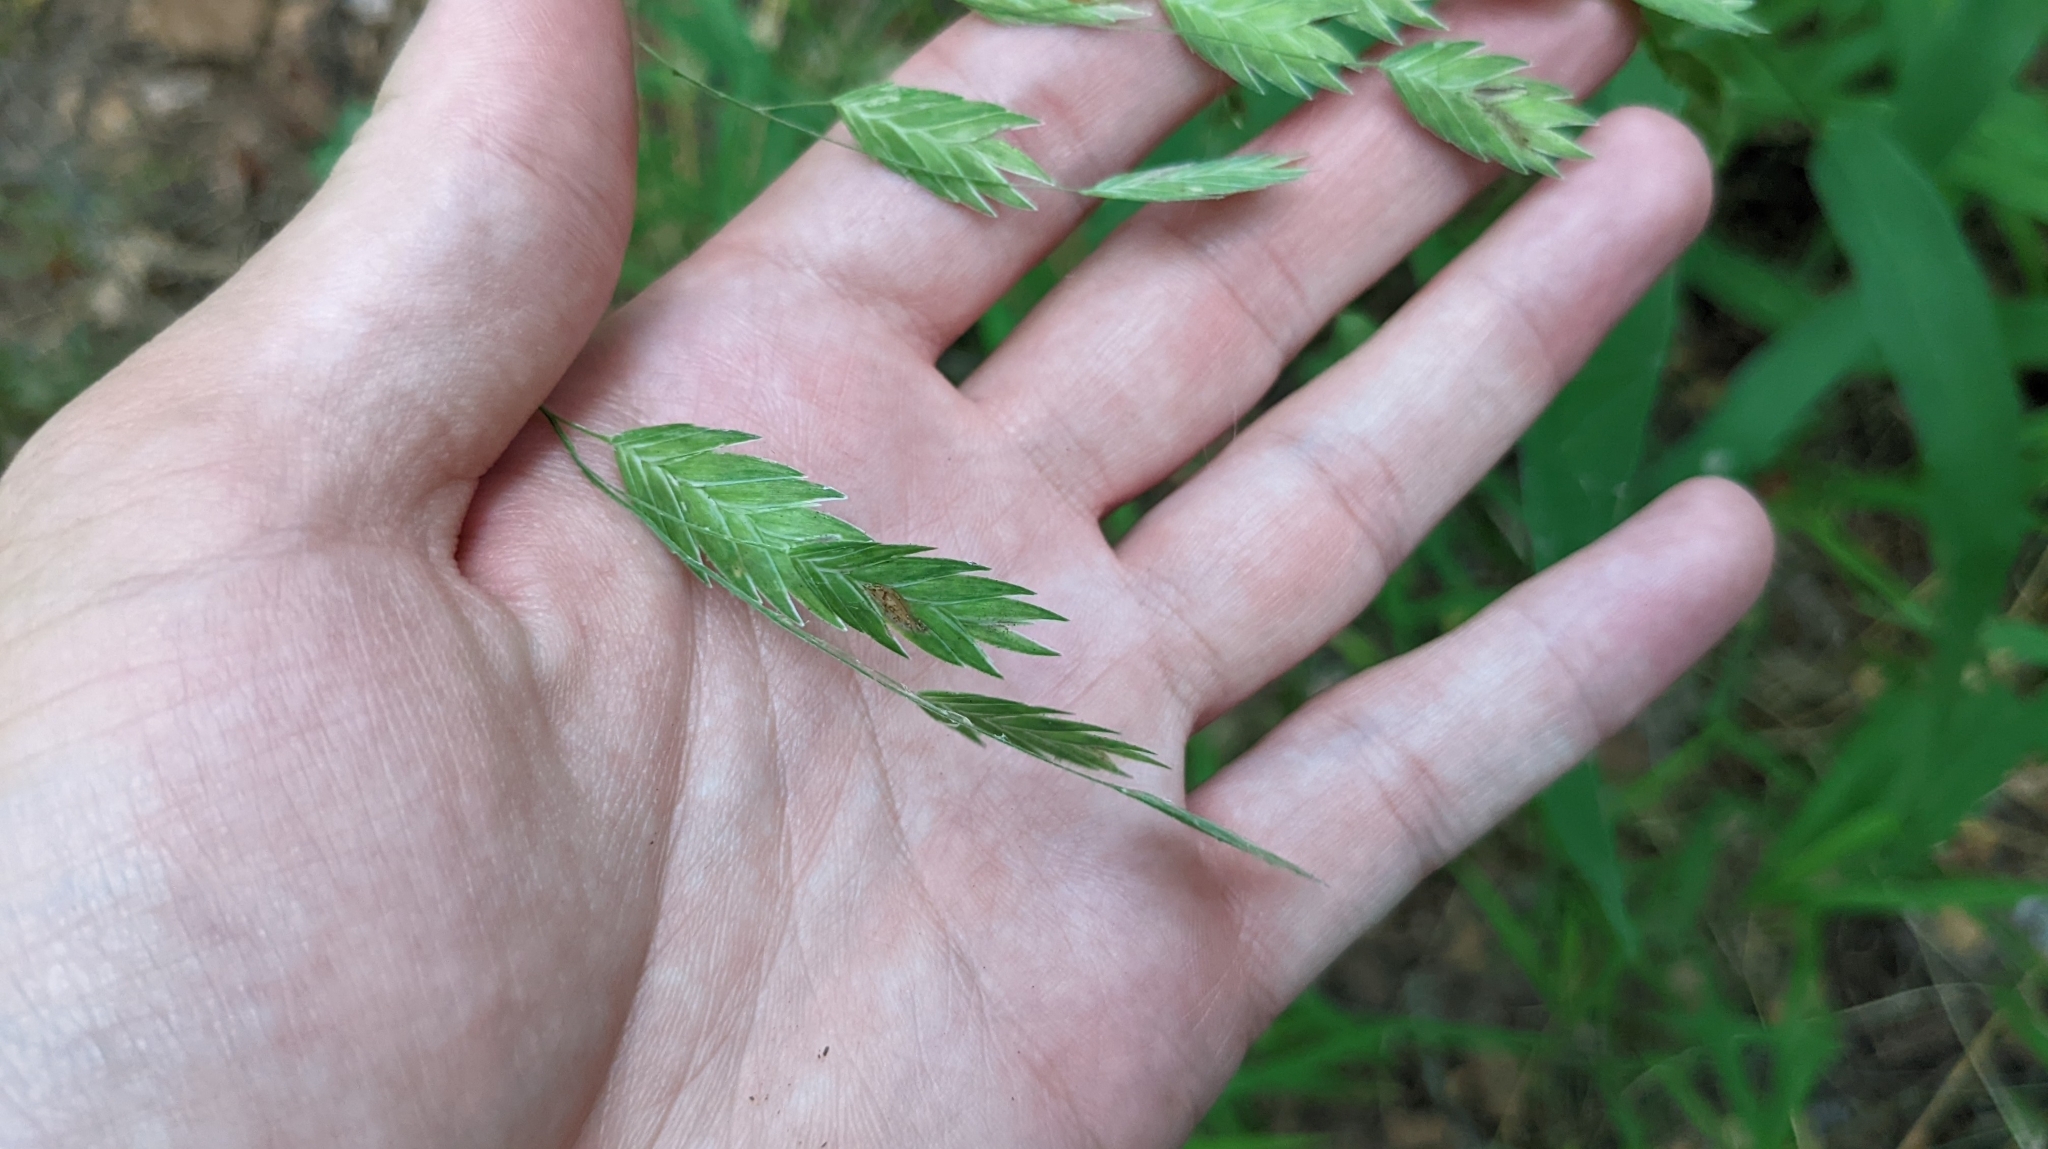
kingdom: Plantae
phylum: Tracheophyta
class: Liliopsida
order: Poales
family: Poaceae
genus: Chasmanthium
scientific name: Chasmanthium latifolium
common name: Broad-leaved chasmanthium
